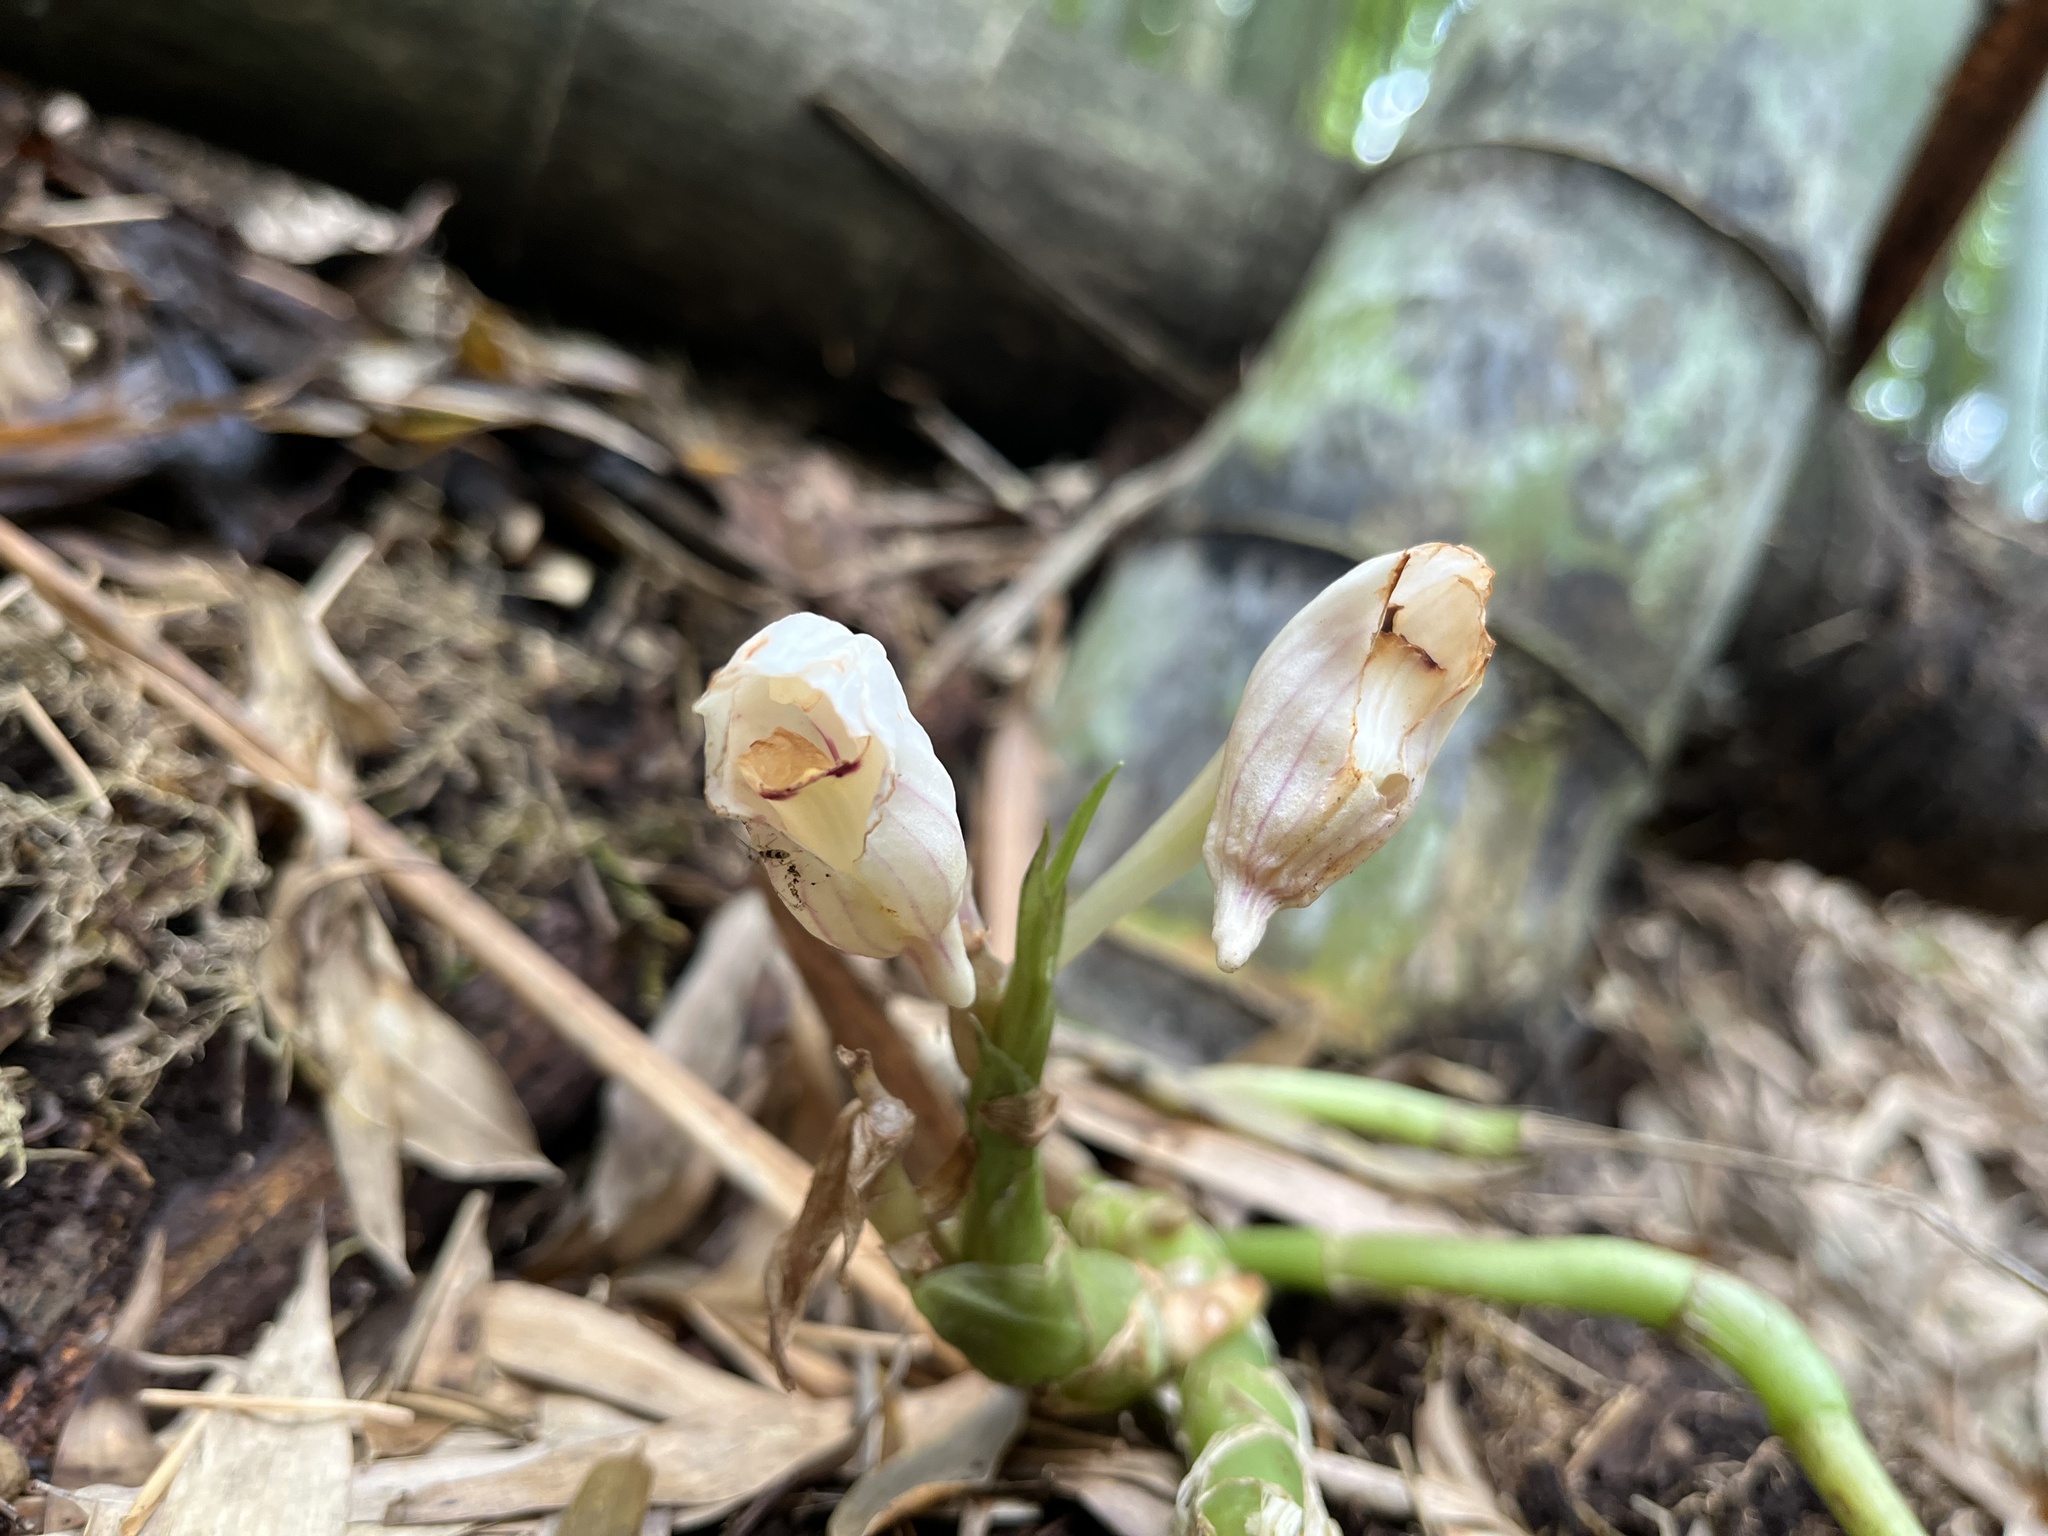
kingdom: Plantae
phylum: Tracheophyta
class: Liliopsida
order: Asparagales
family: Orchidaceae
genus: Acanthophippium
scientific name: Acanthophippium striatum
